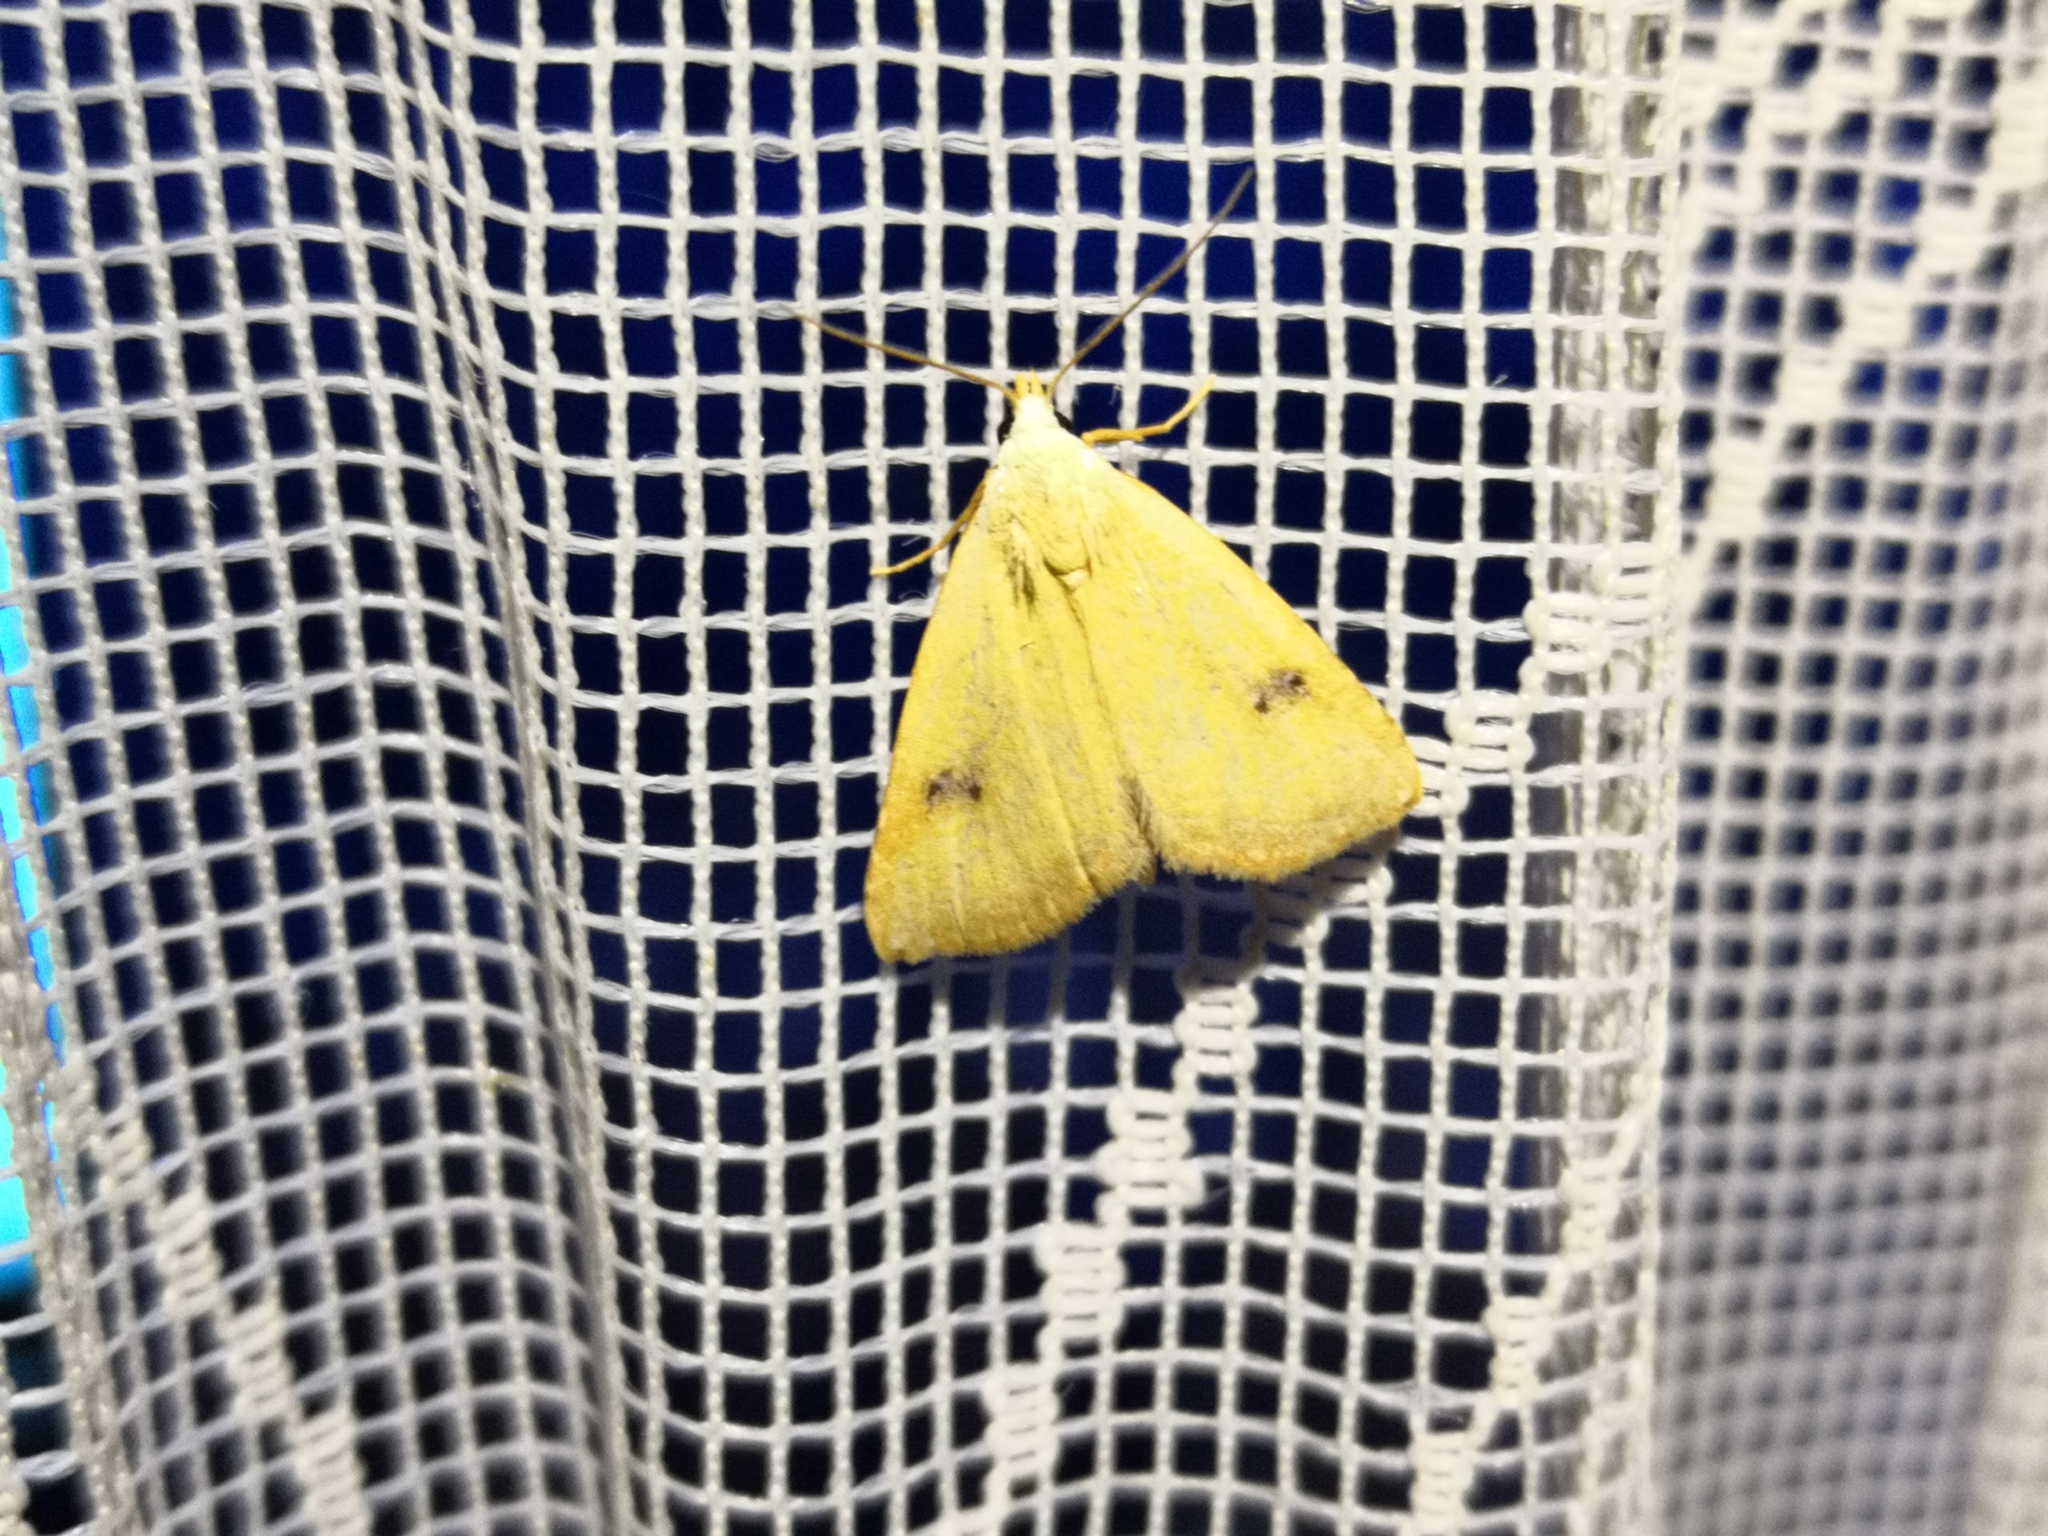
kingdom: Animalia
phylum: Arthropoda
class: Insecta
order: Lepidoptera
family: Erebidae
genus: Rivula
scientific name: Rivula sericealis
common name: Straw dot
